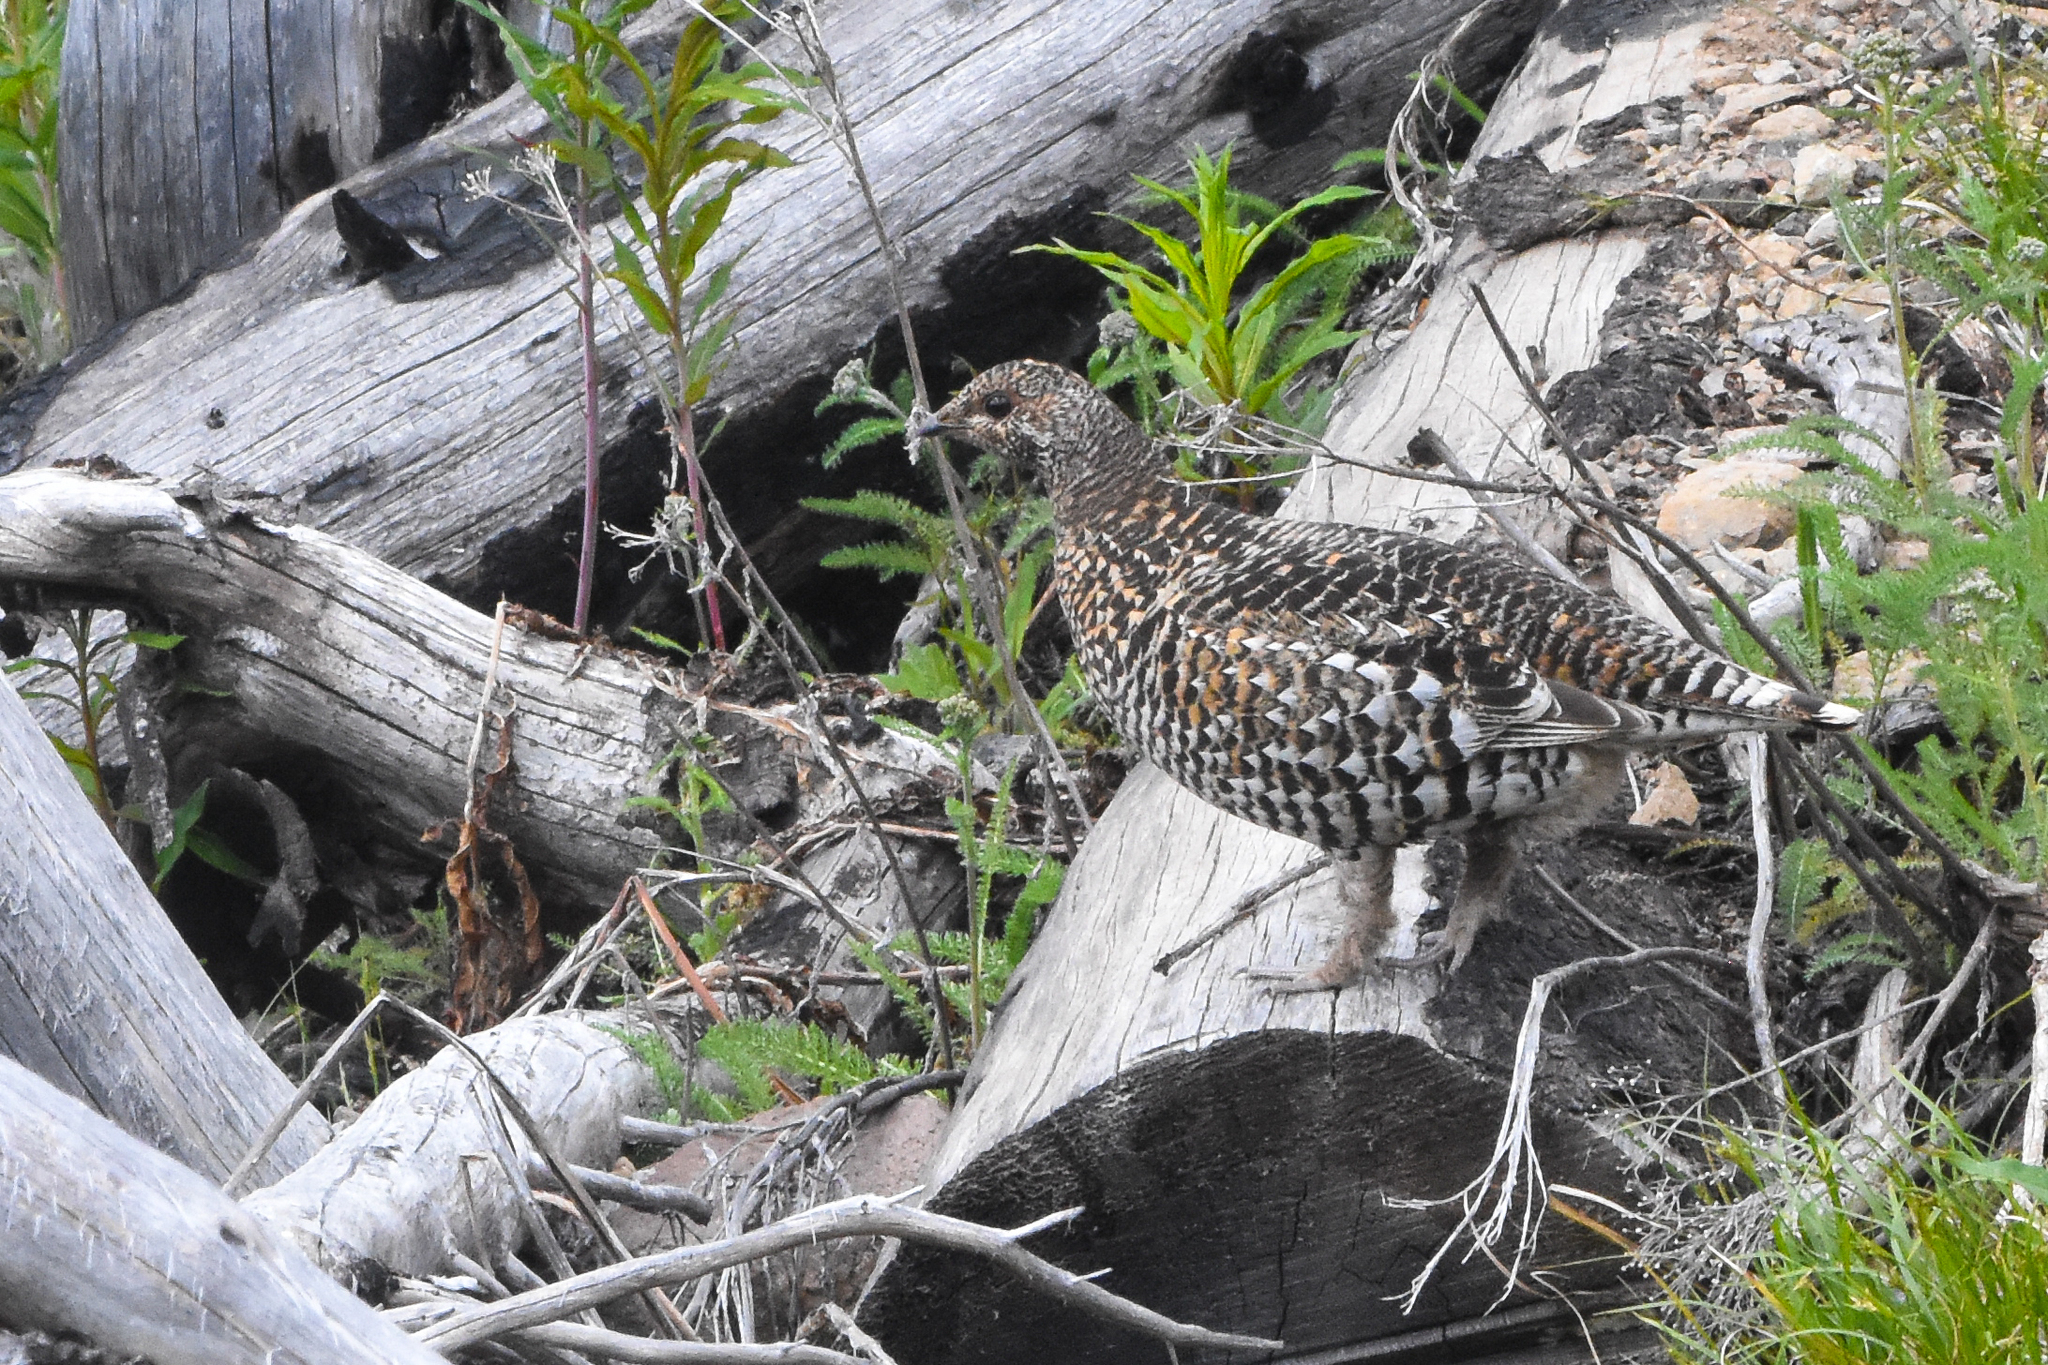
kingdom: Animalia
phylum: Chordata
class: Aves
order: Galliformes
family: Phasianidae
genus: Canachites
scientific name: Canachites canadensis
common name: Spruce grouse
